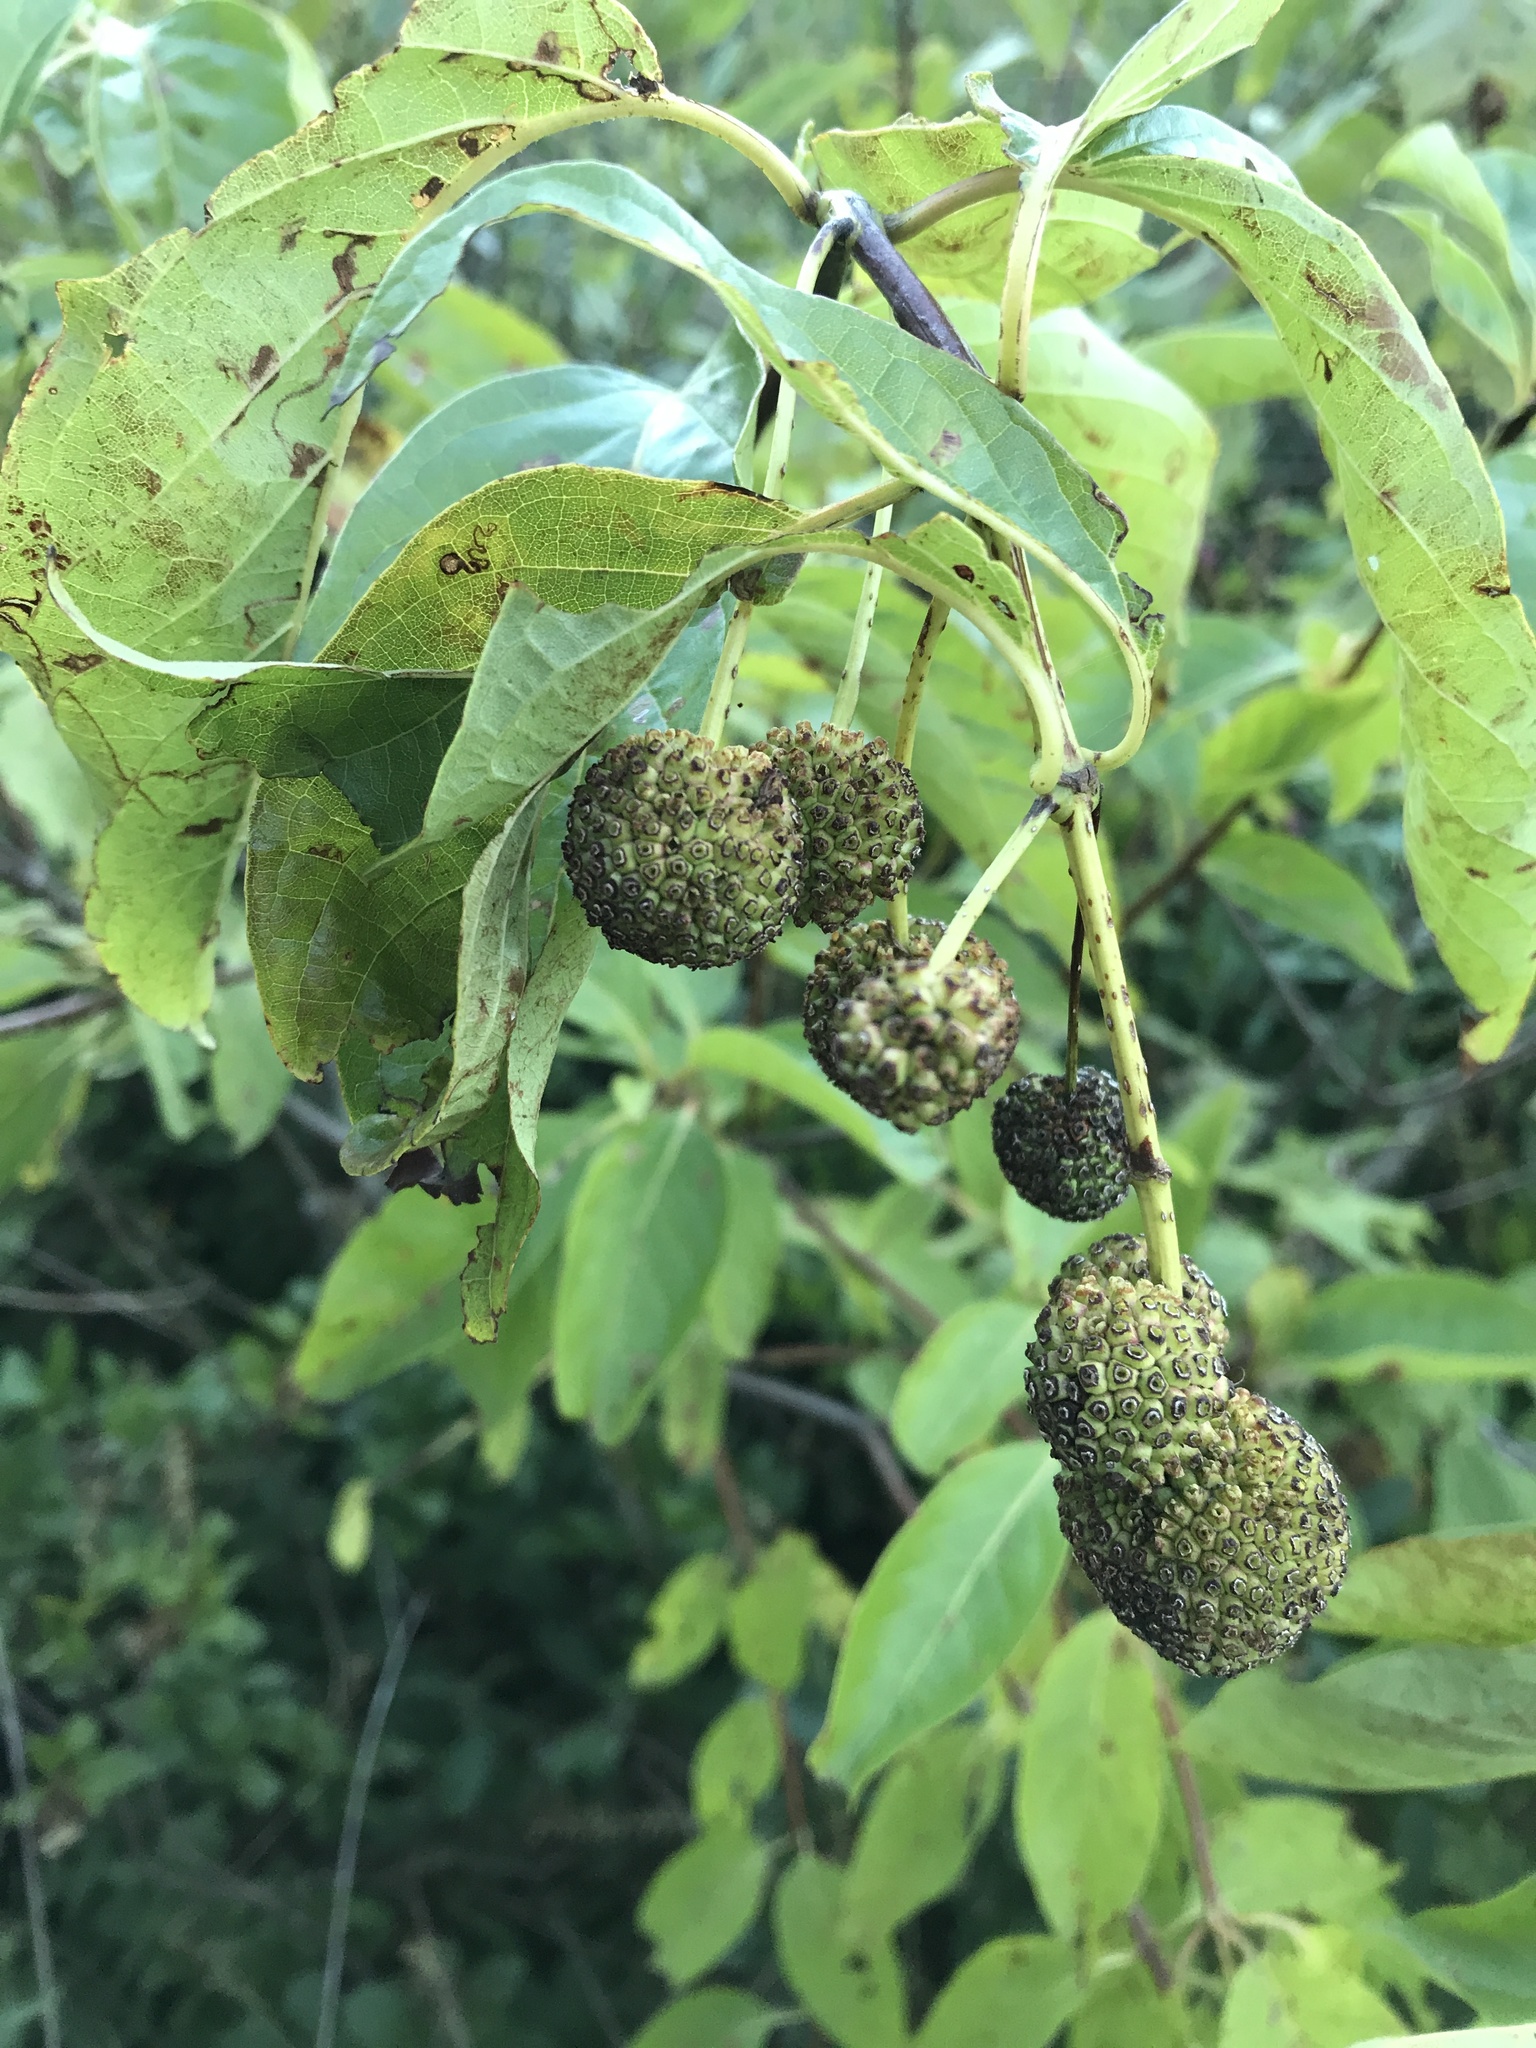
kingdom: Plantae
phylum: Tracheophyta
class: Magnoliopsida
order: Gentianales
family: Rubiaceae
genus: Cephalanthus
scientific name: Cephalanthus occidentalis
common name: Button-willow
